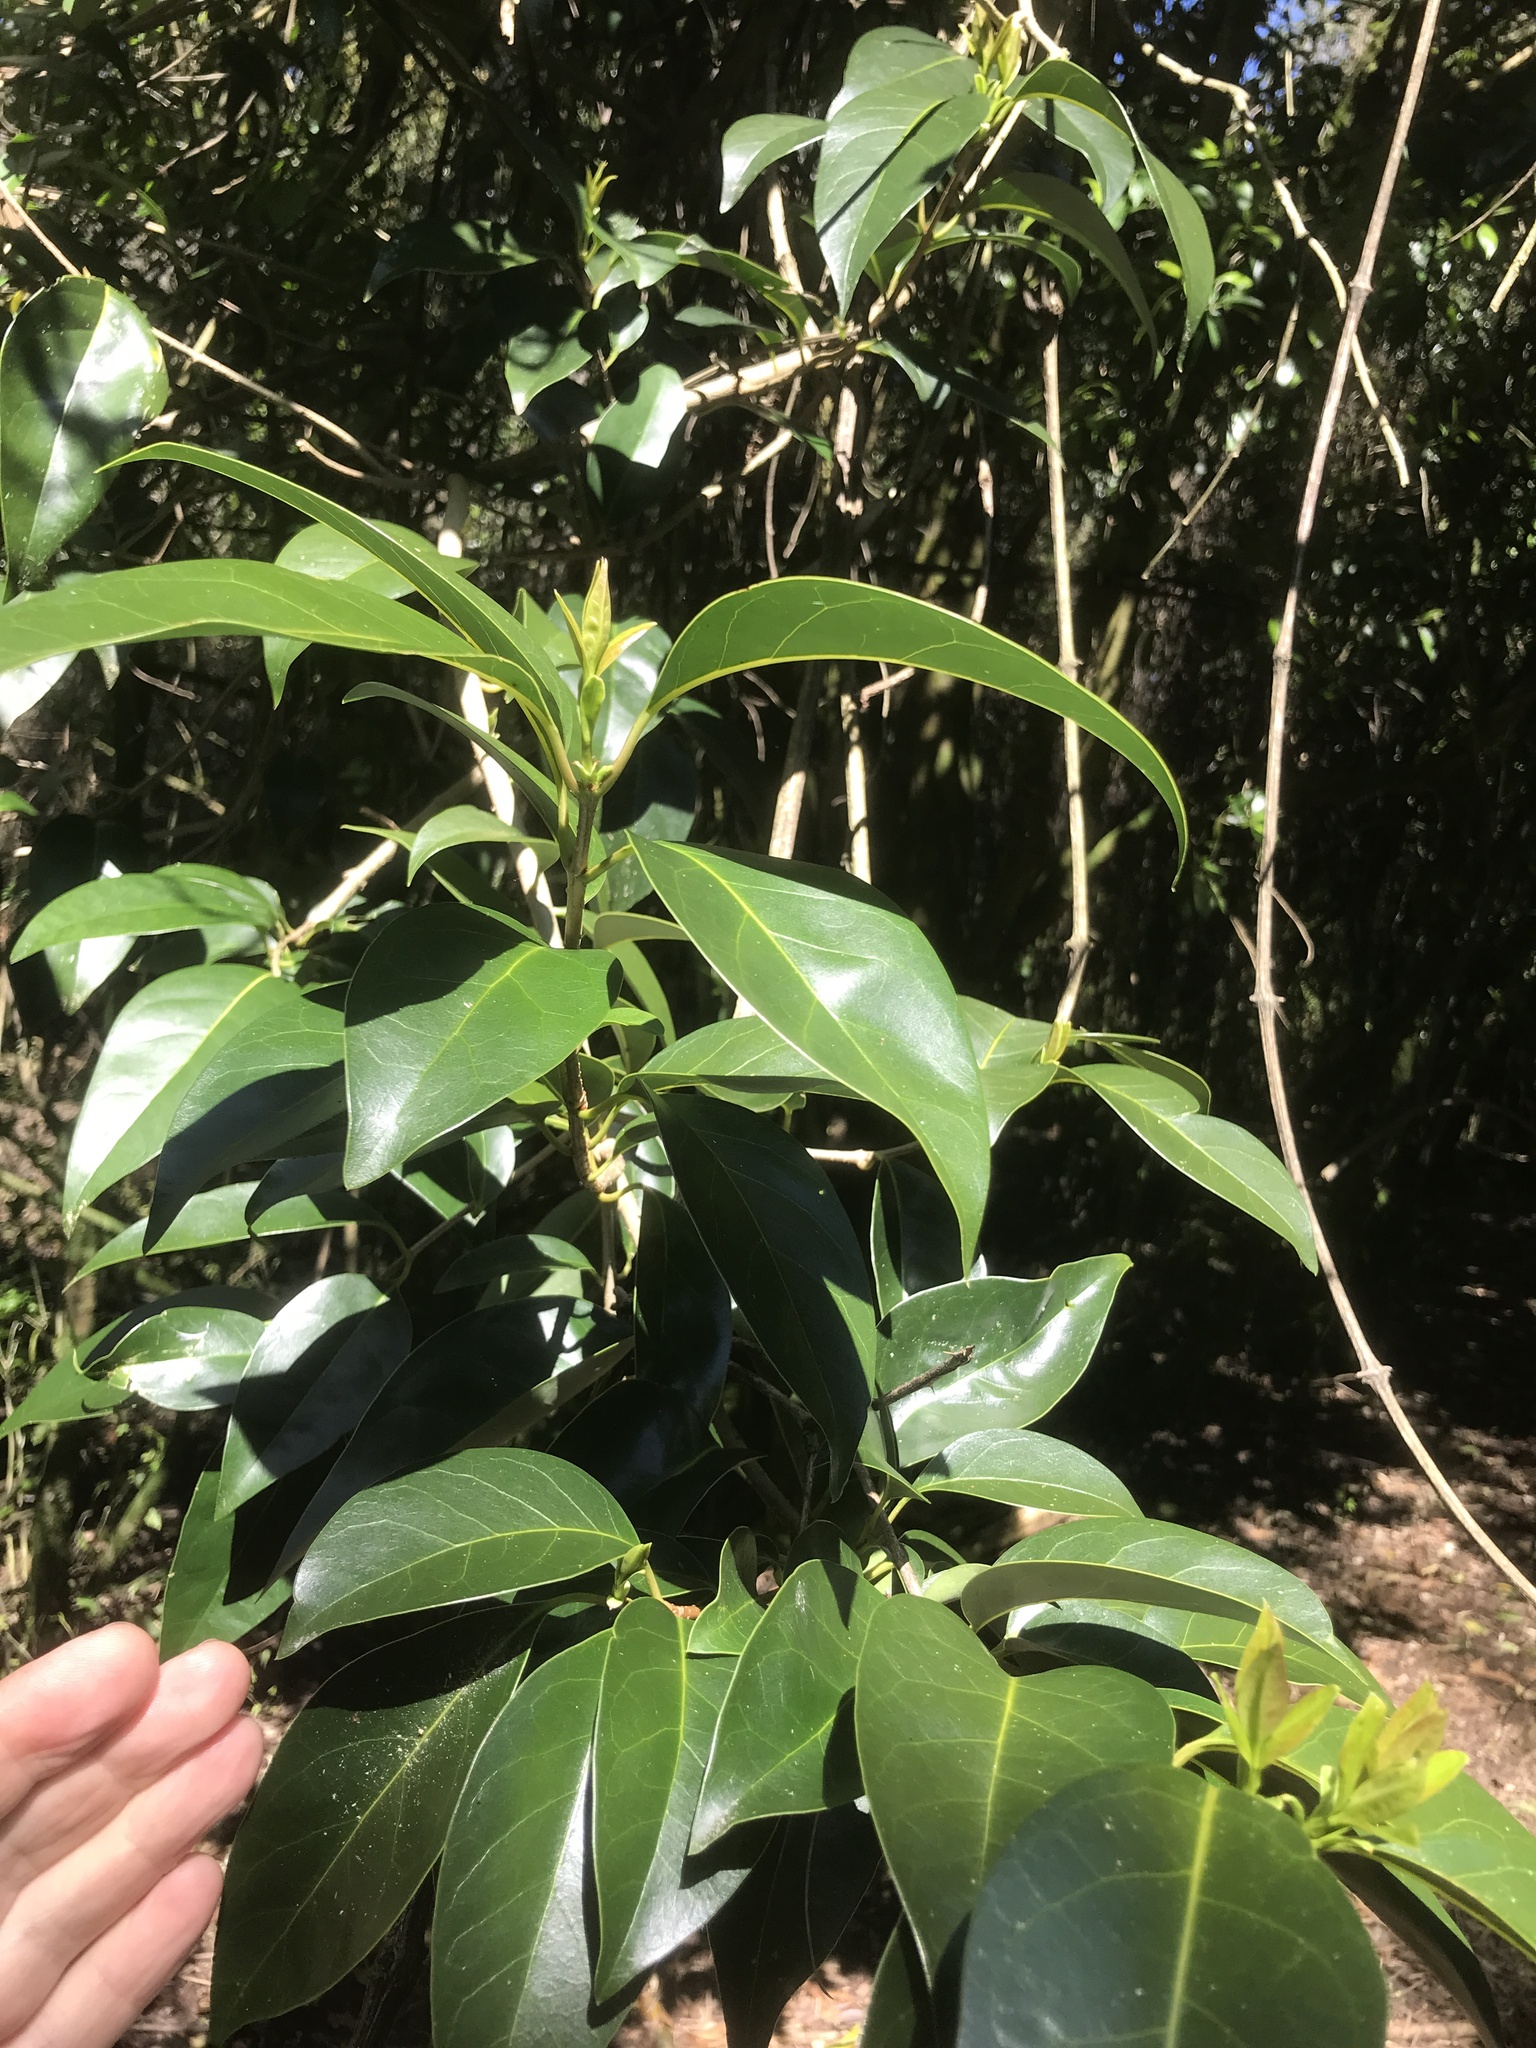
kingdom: Plantae
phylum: Tracheophyta
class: Magnoliopsida
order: Lamiales
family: Oleaceae
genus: Ligustrum
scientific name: Ligustrum lucidum
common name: Glossy privet
